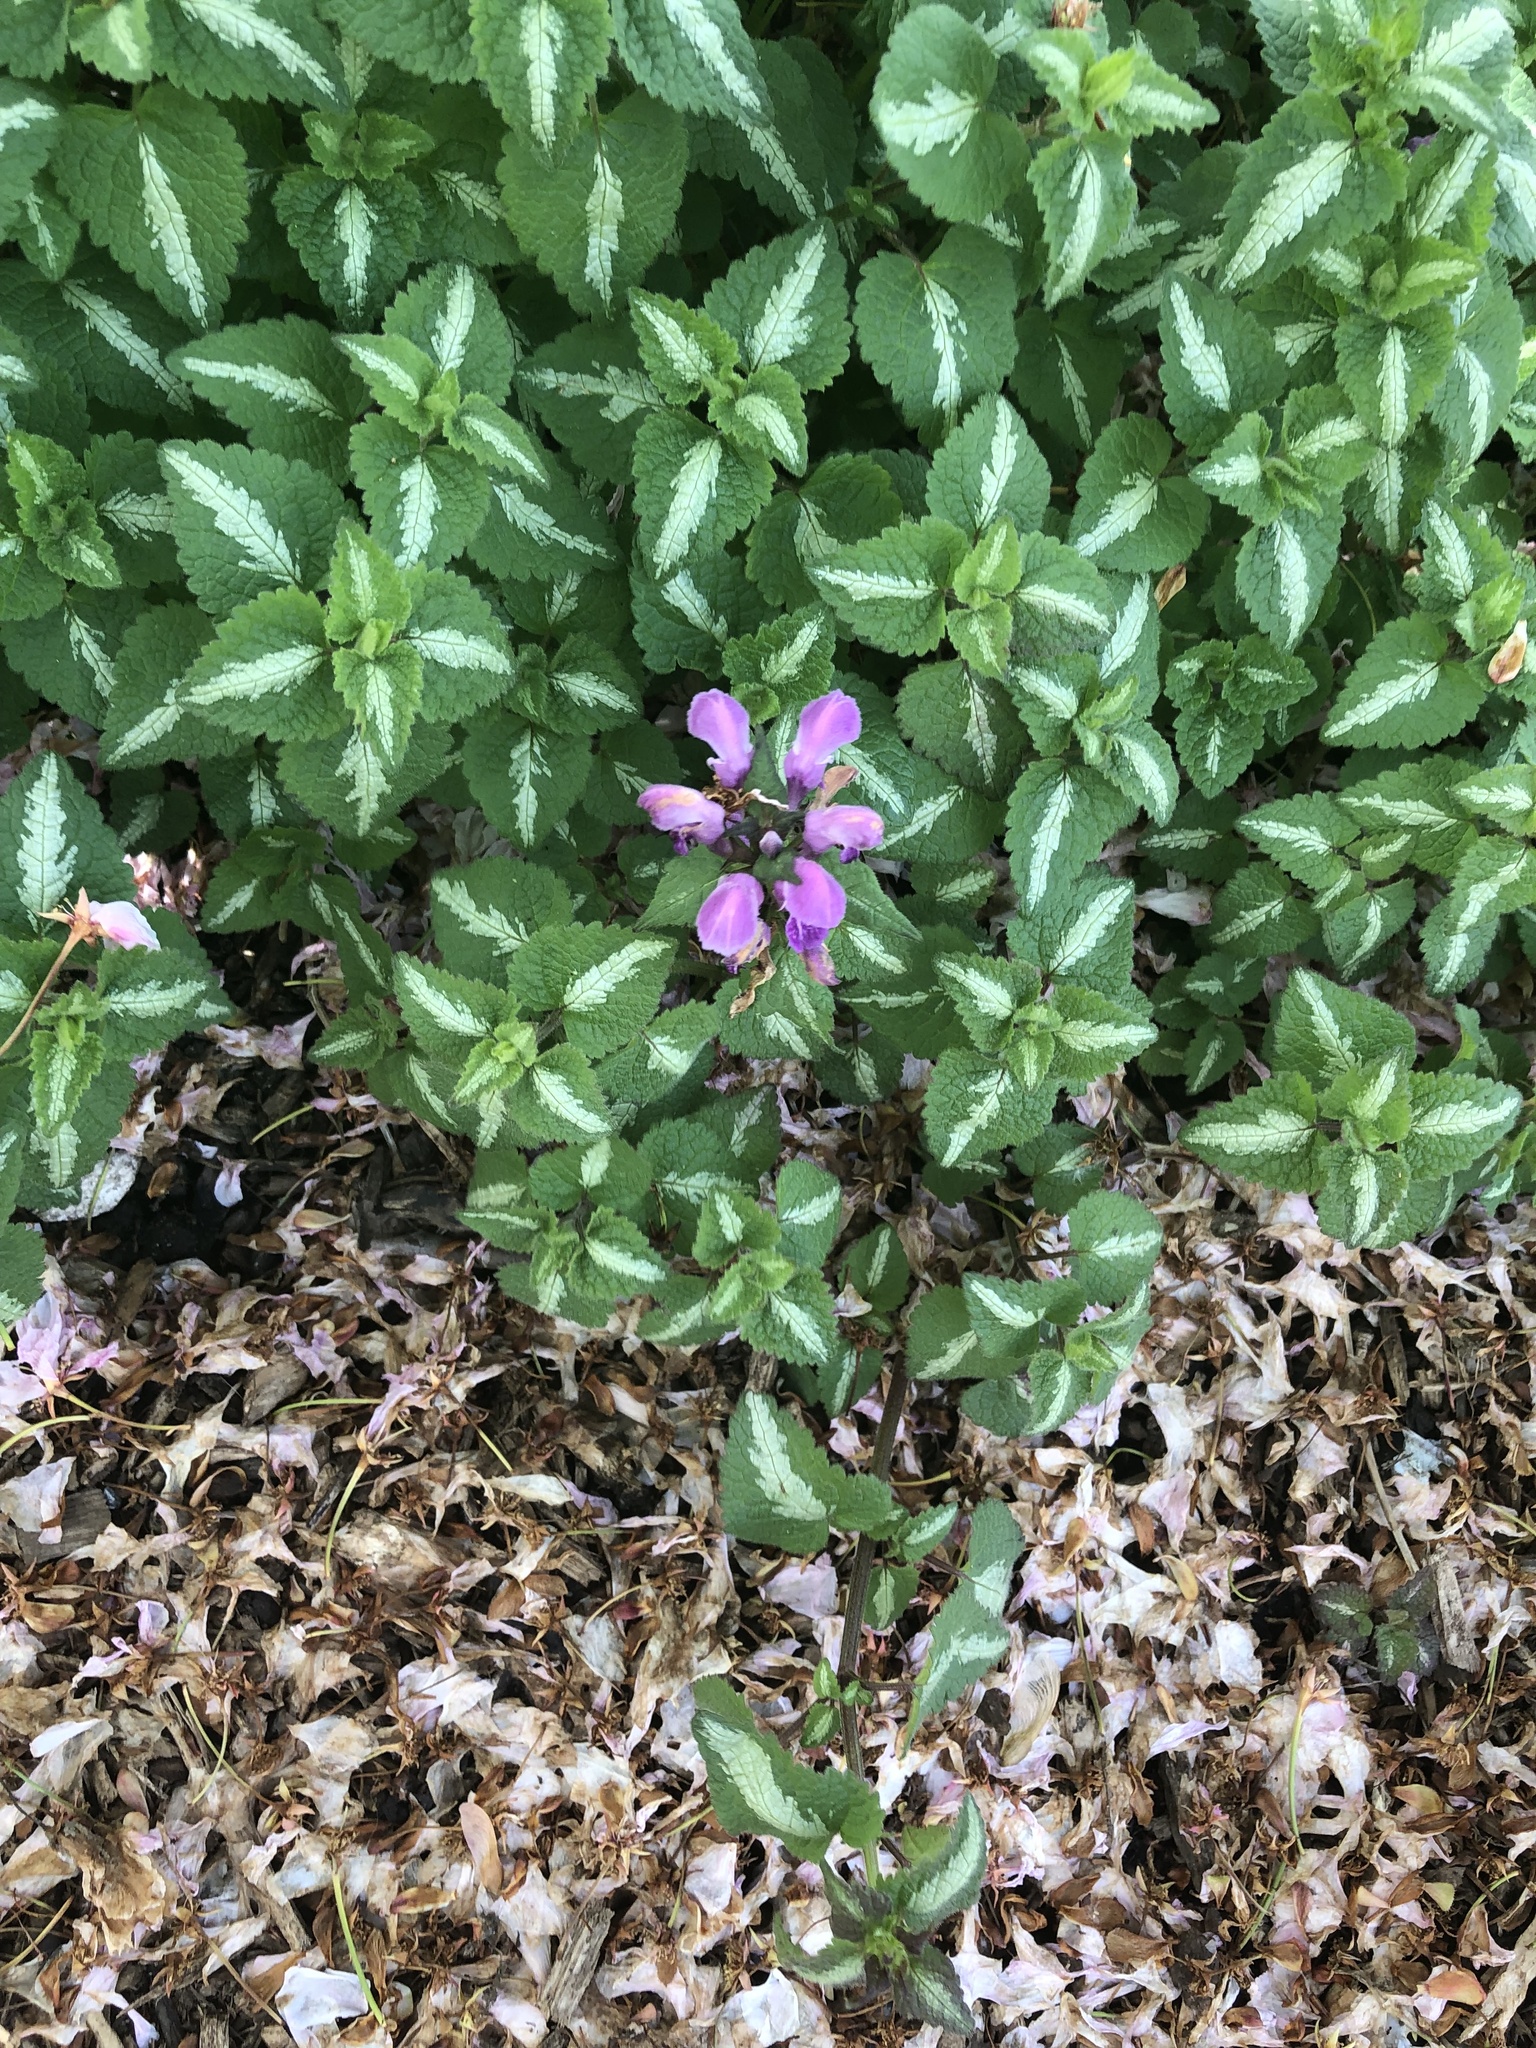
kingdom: Plantae
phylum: Tracheophyta
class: Magnoliopsida
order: Lamiales
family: Lamiaceae
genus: Lamium
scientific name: Lamium maculatum
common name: Spotted dead-nettle
